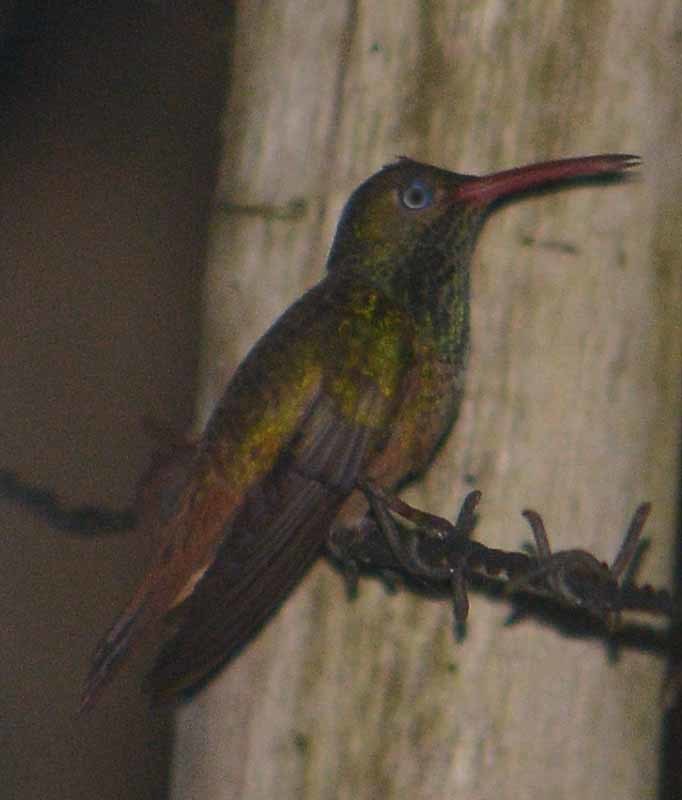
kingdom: Animalia
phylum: Chordata
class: Aves
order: Apodiformes
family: Trochilidae
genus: Amazilia
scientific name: Amazilia yucatanensis
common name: Buff-bellied hummingbird
